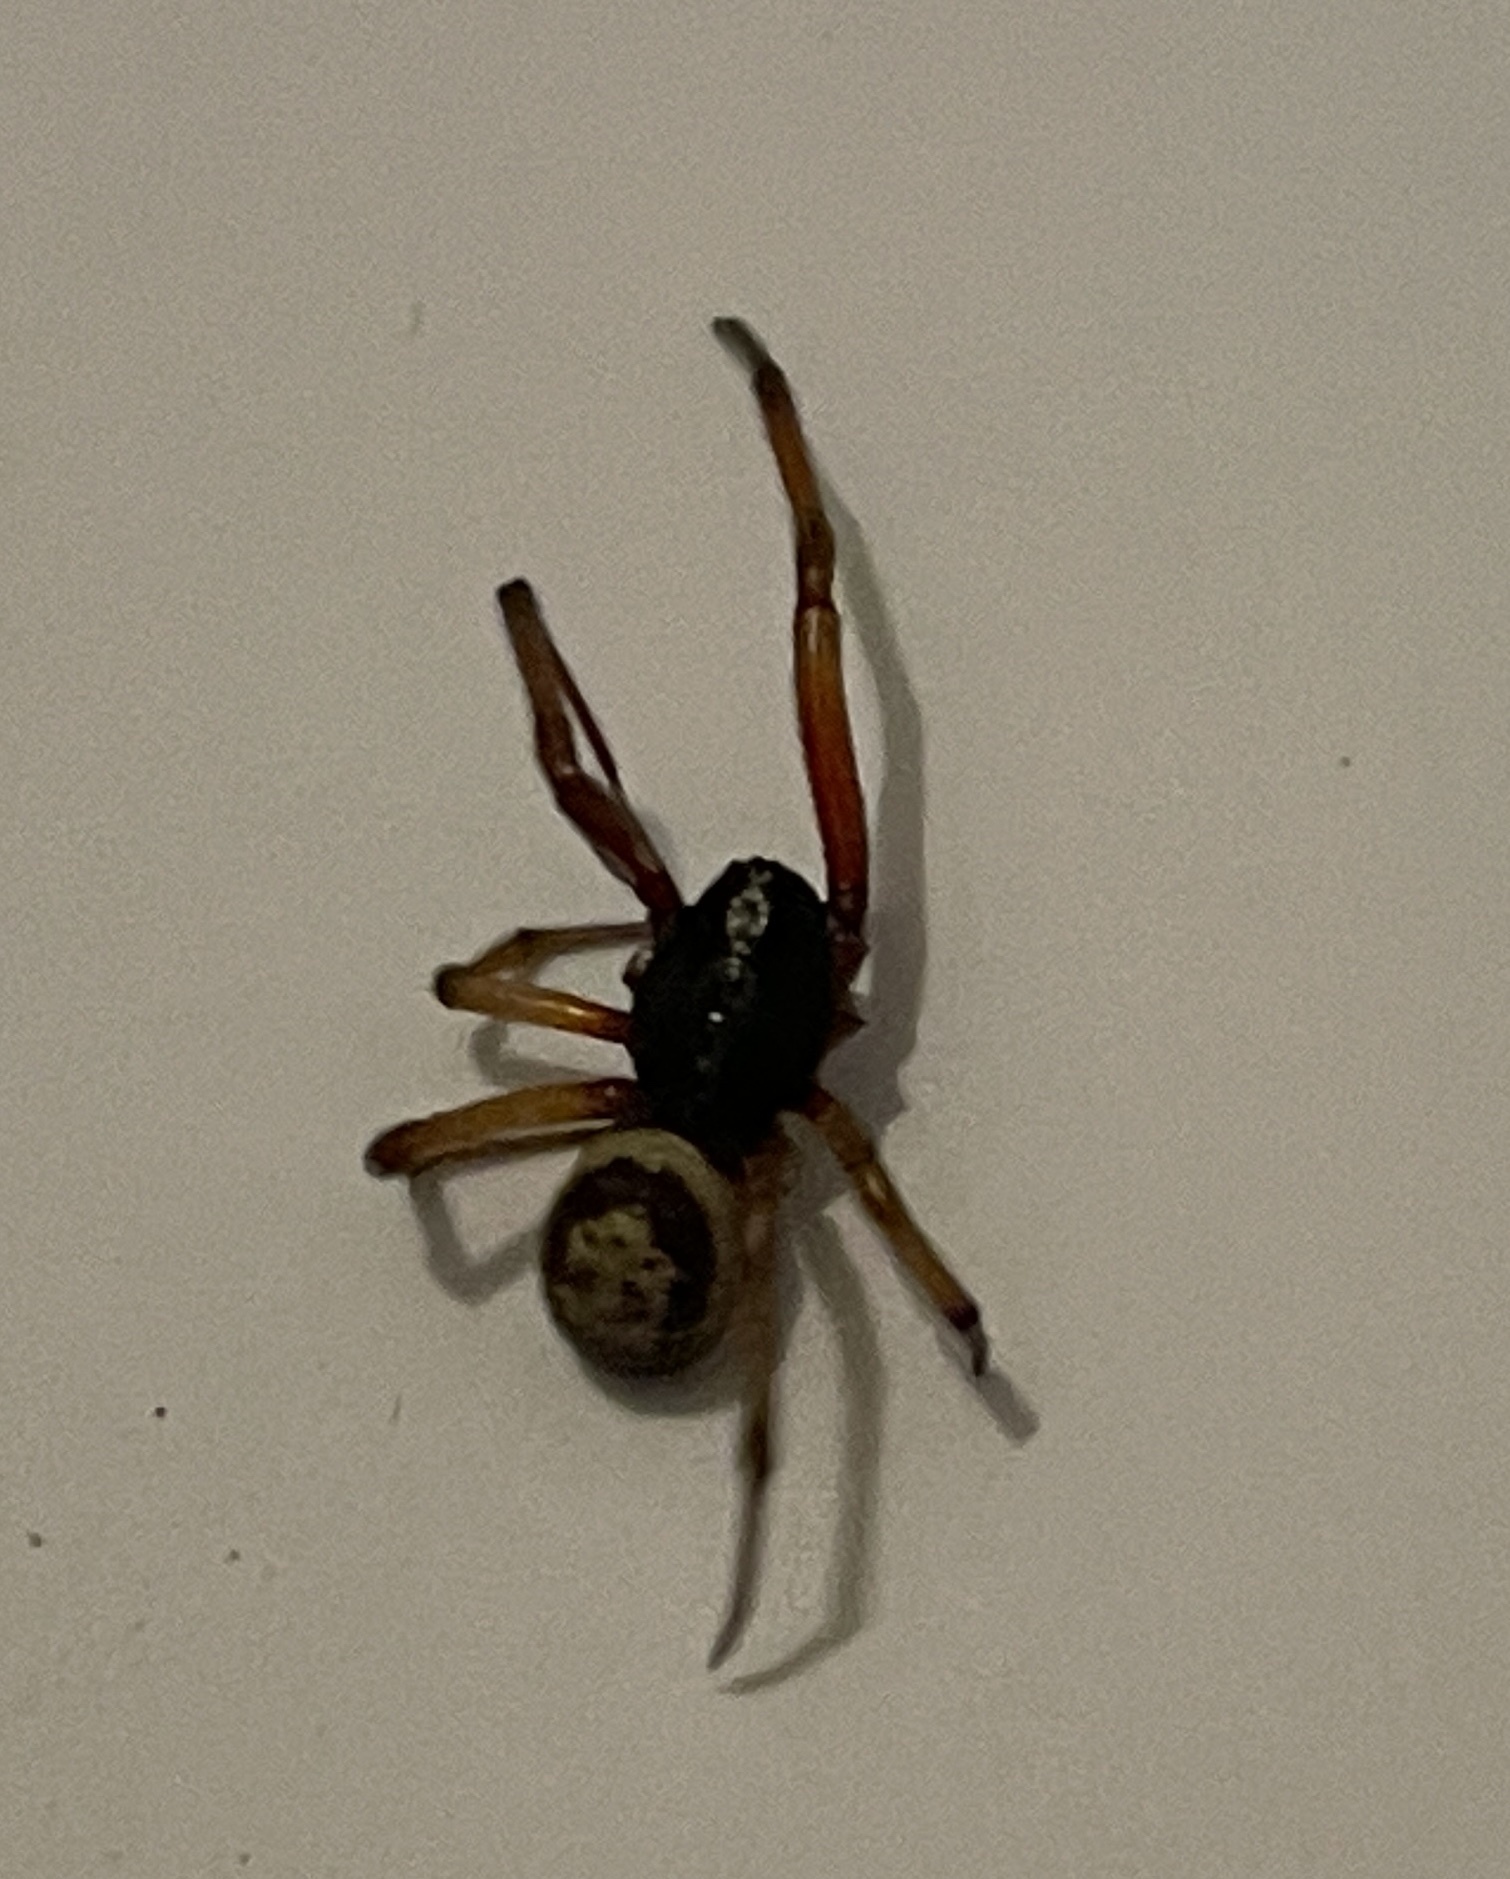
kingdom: Animalia
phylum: Arthropoda
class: Arachnida
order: Araneae
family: Theridiidae
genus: Steatoda
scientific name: Steatoda nobilis
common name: Cobweb weaver
